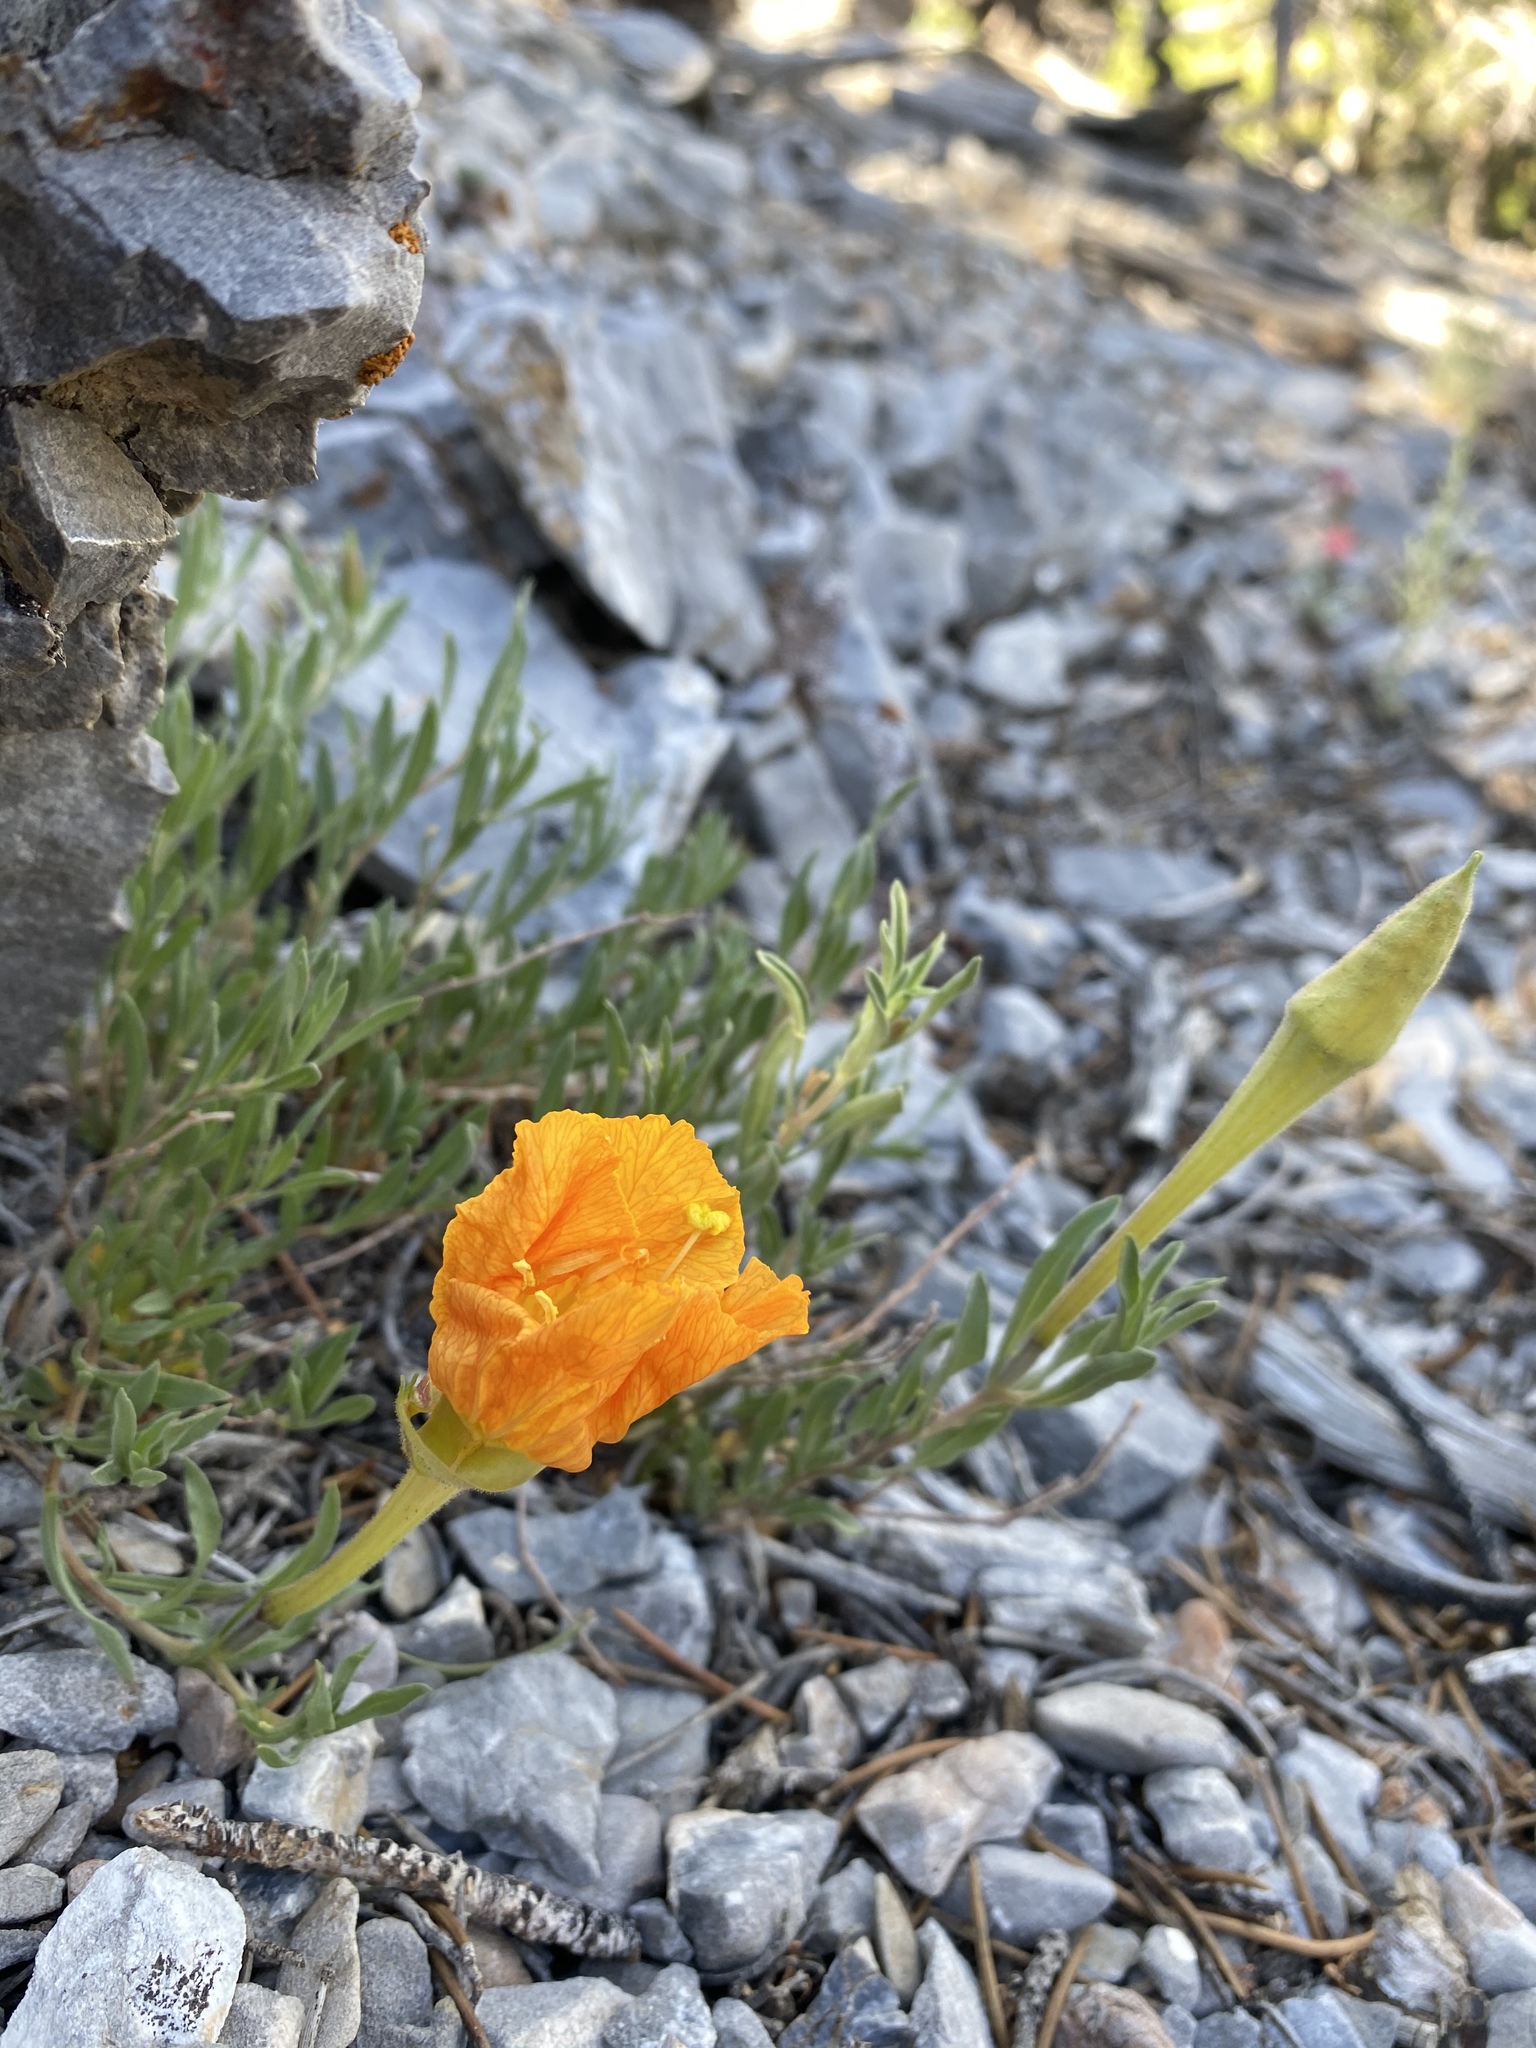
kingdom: Plantae
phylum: Tracheophyta
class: Magnoliopsida
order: Myrtales
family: Onagraceae
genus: Oenothera
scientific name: Oenothera lavandulifolia
